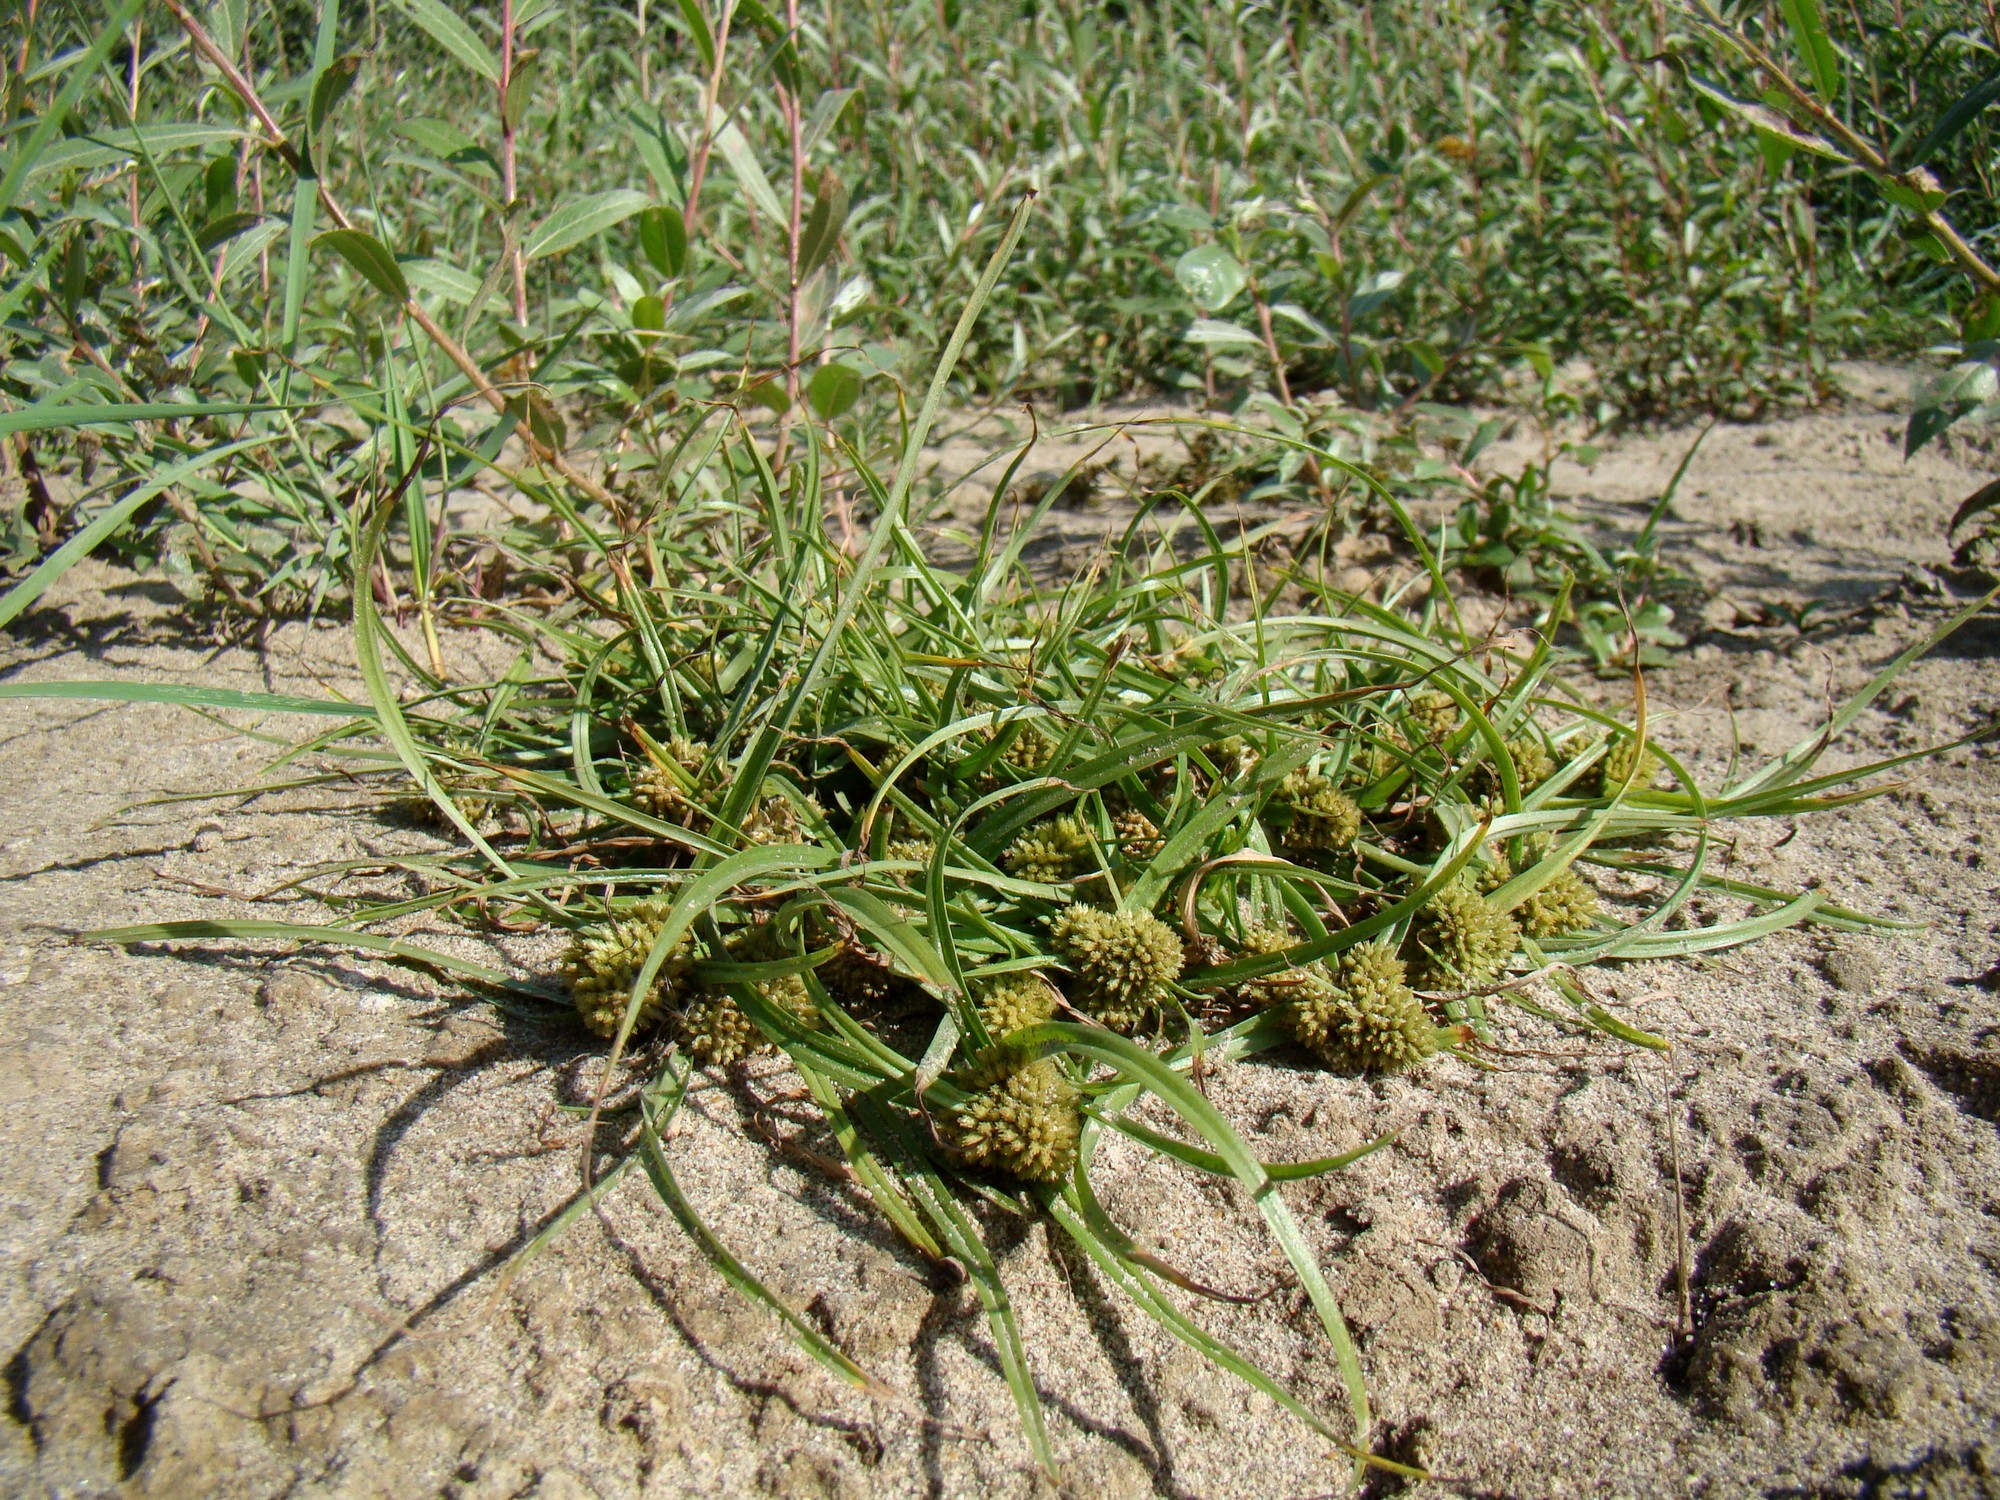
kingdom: Plantae
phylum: Tracheophyta
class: Liliopsida
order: Poales
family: Cyperaceae
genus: Cyperus
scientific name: Cyperus michelianus
